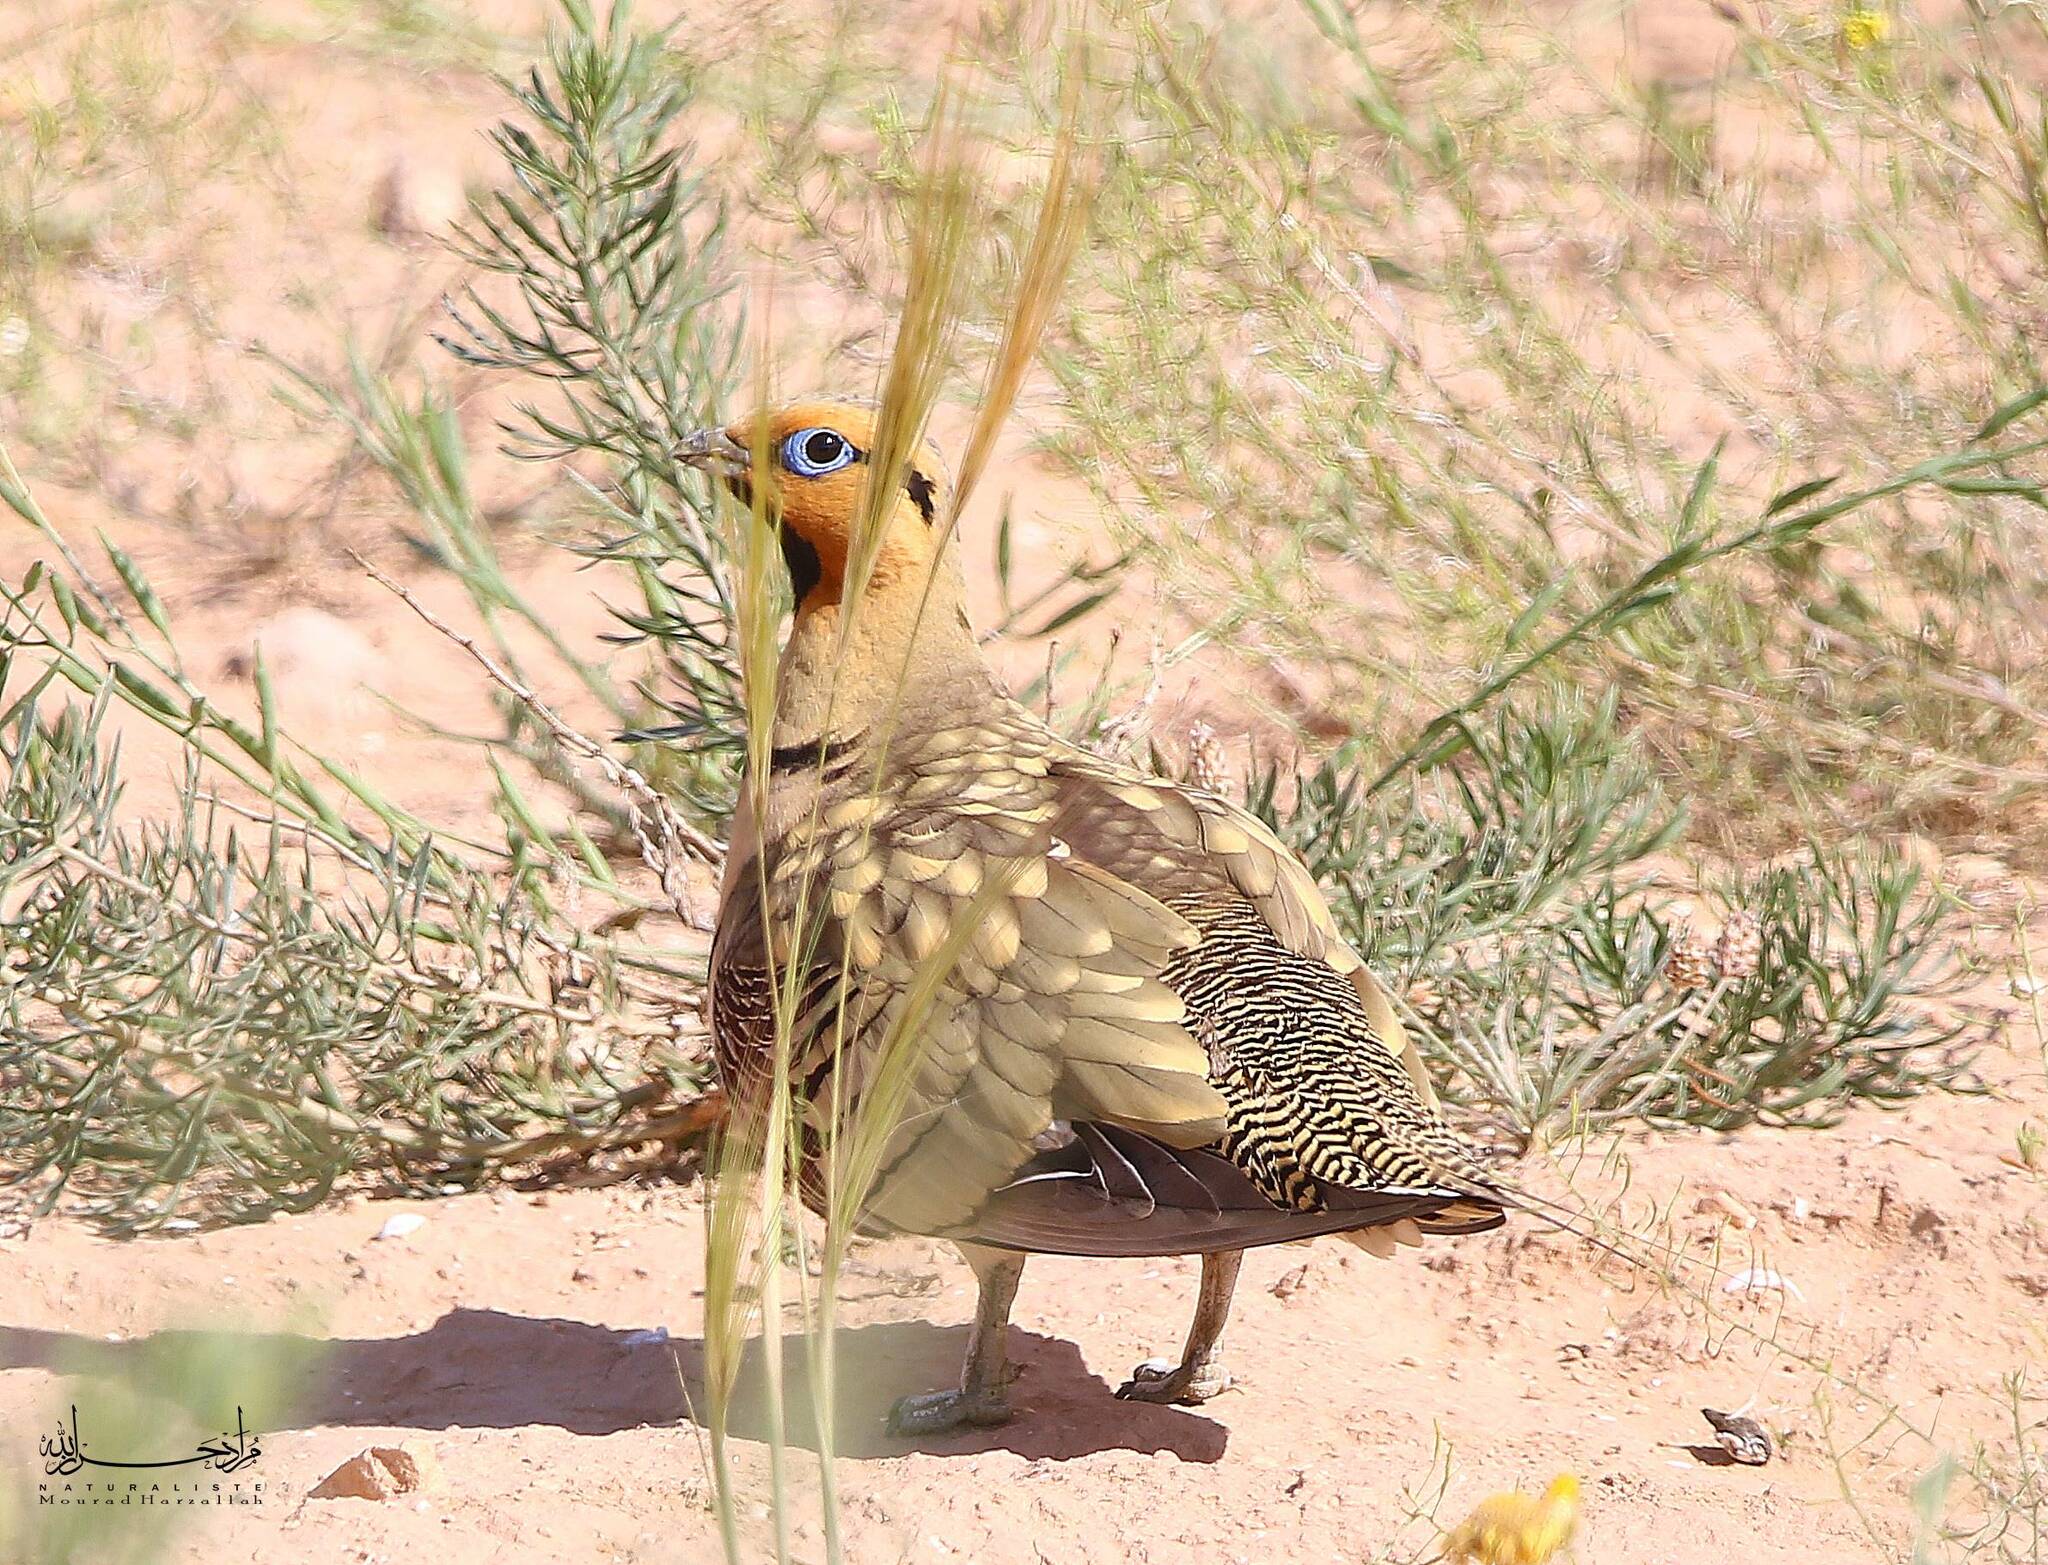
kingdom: Animalia
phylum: Chordata
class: Aves
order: Pteroclidiformes
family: Pteroclididae
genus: Pterocles
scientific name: Pterocles alchata
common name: Pin-tailed sandgrouse
